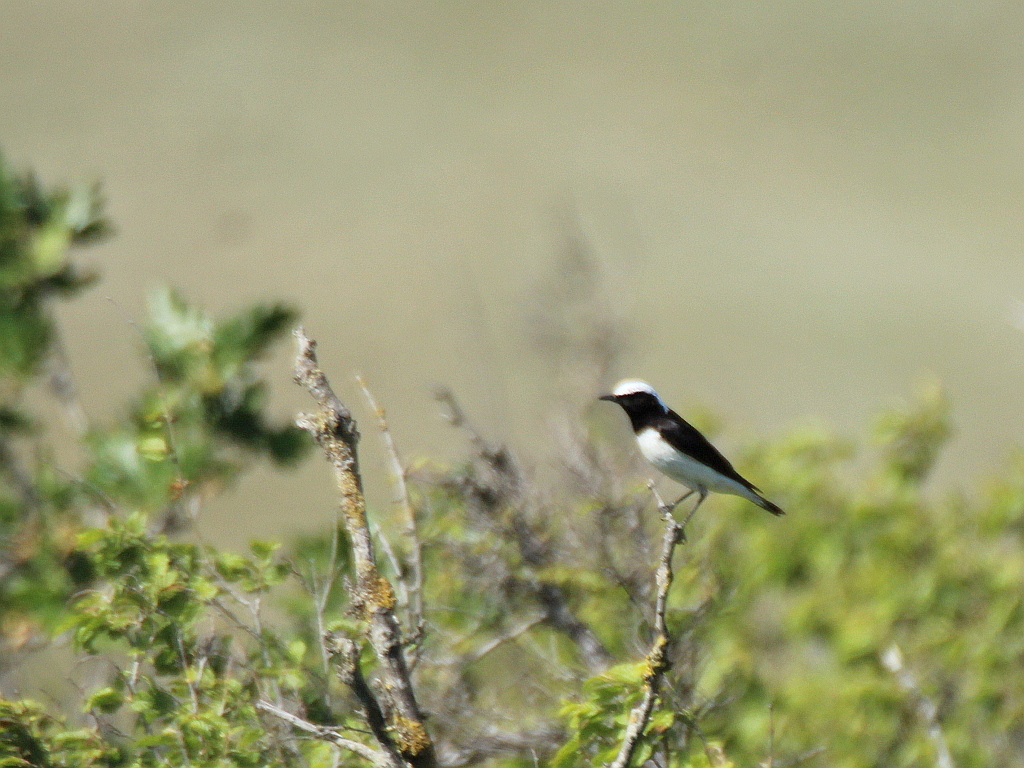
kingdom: Animalia
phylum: Chordata
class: Aves
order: Passeriformes
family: Muscicapidae
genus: Oenanthe
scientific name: Oenanthe pleschanka
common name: Pied wheatear
